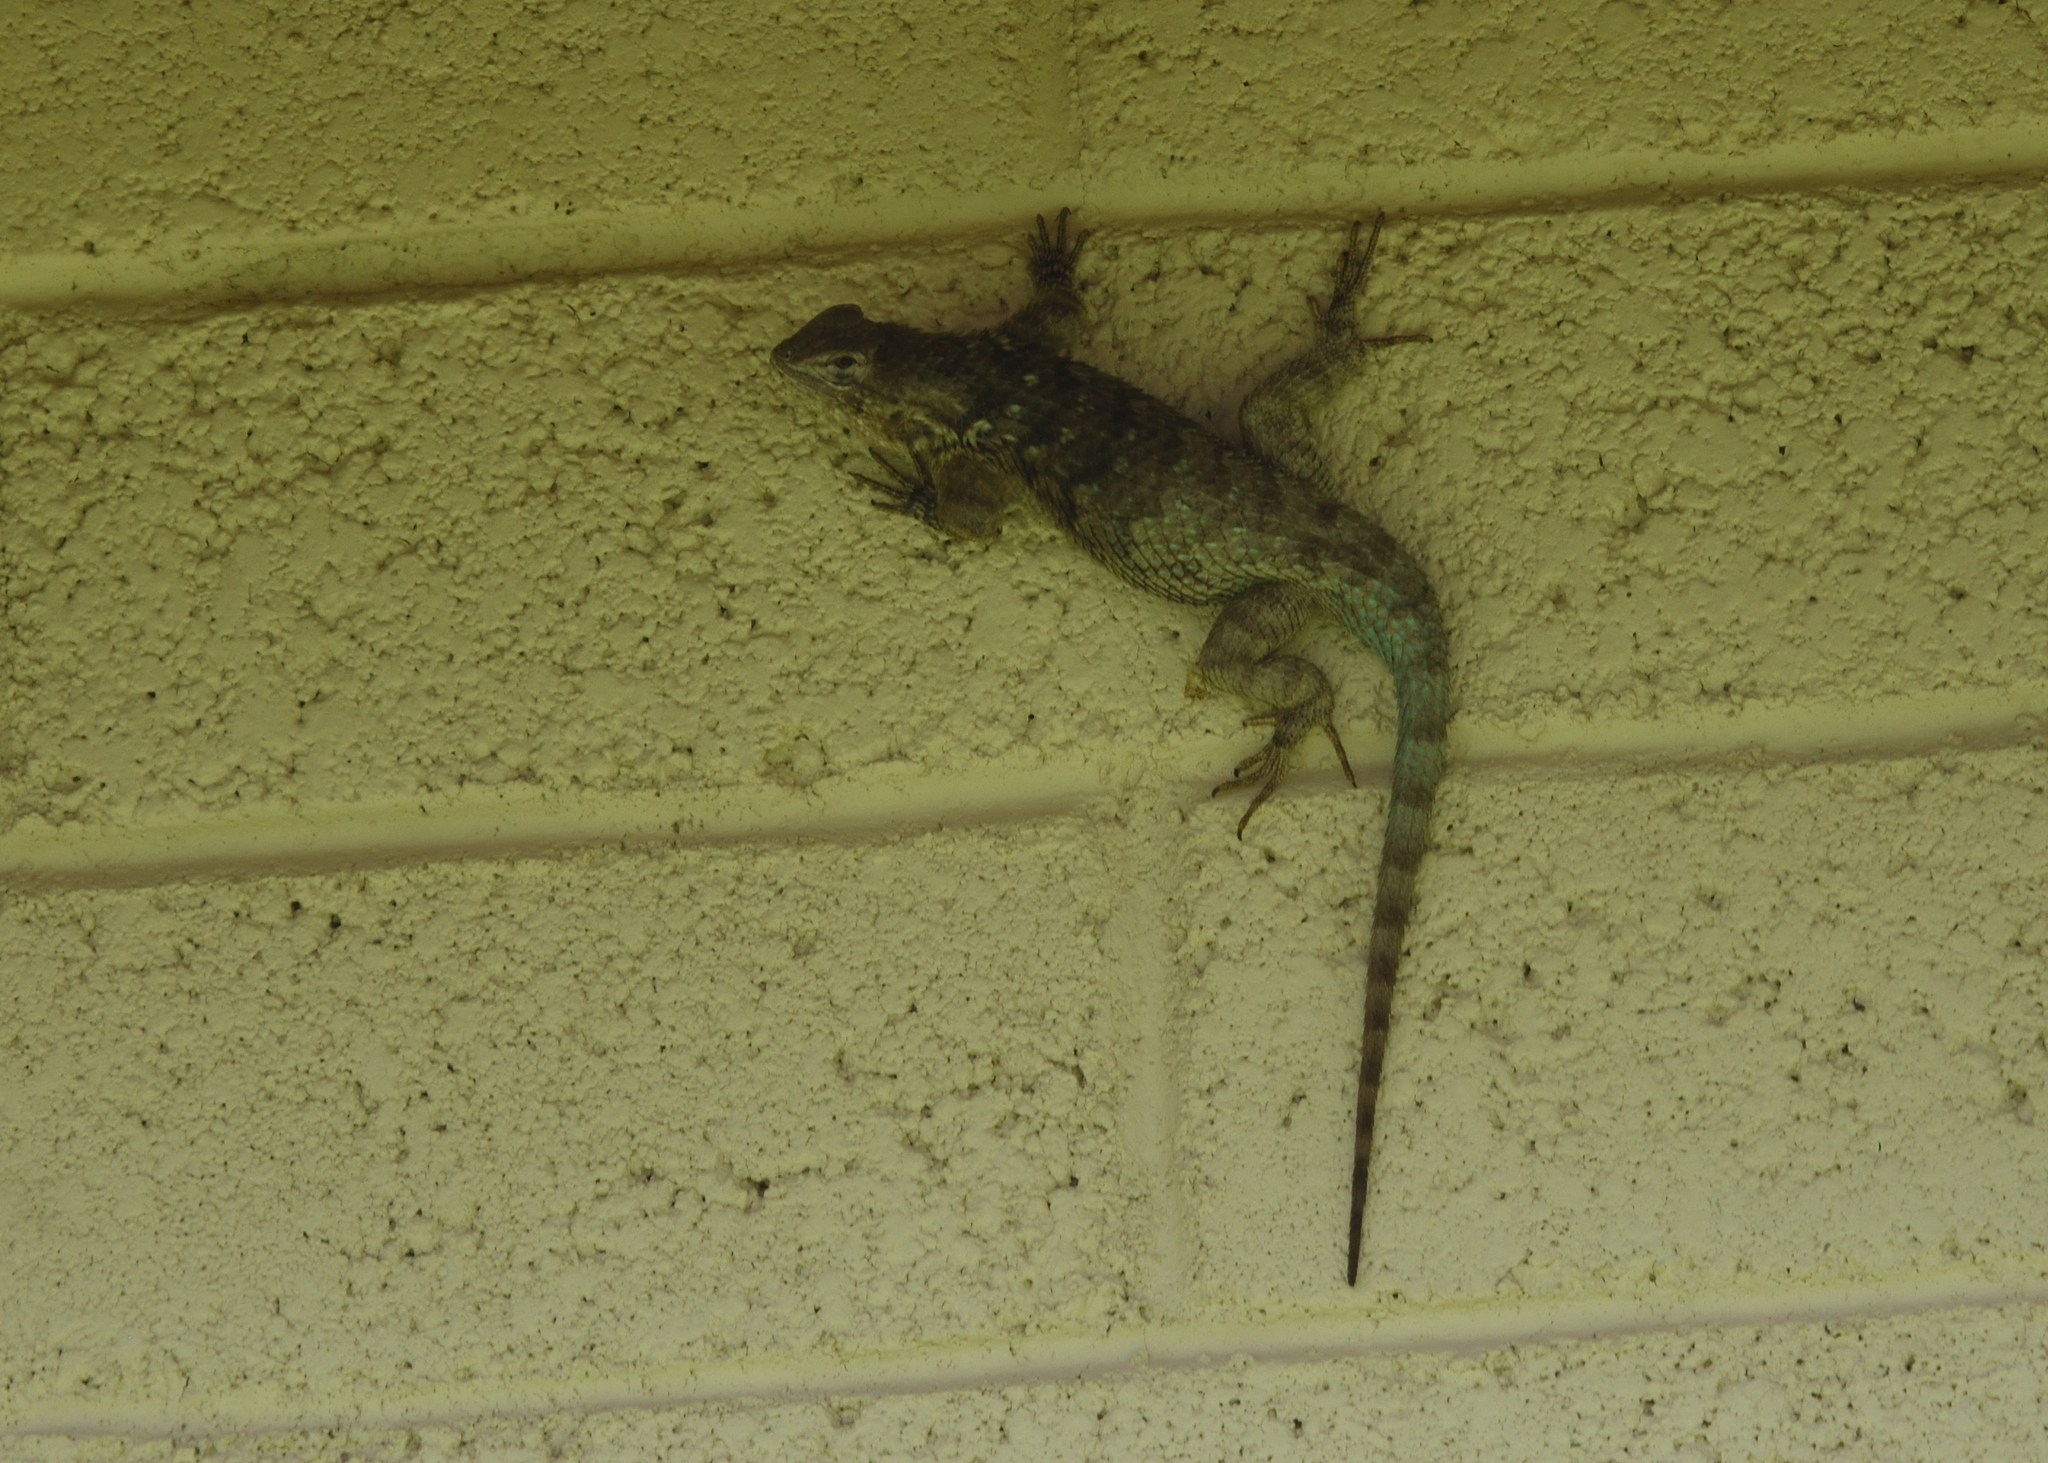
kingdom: Animalia
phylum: Chordata
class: Squamata
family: Phrynosomatidae
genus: Sceloporus
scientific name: Sceloporus clarkii
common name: Clark's spiny lizard
